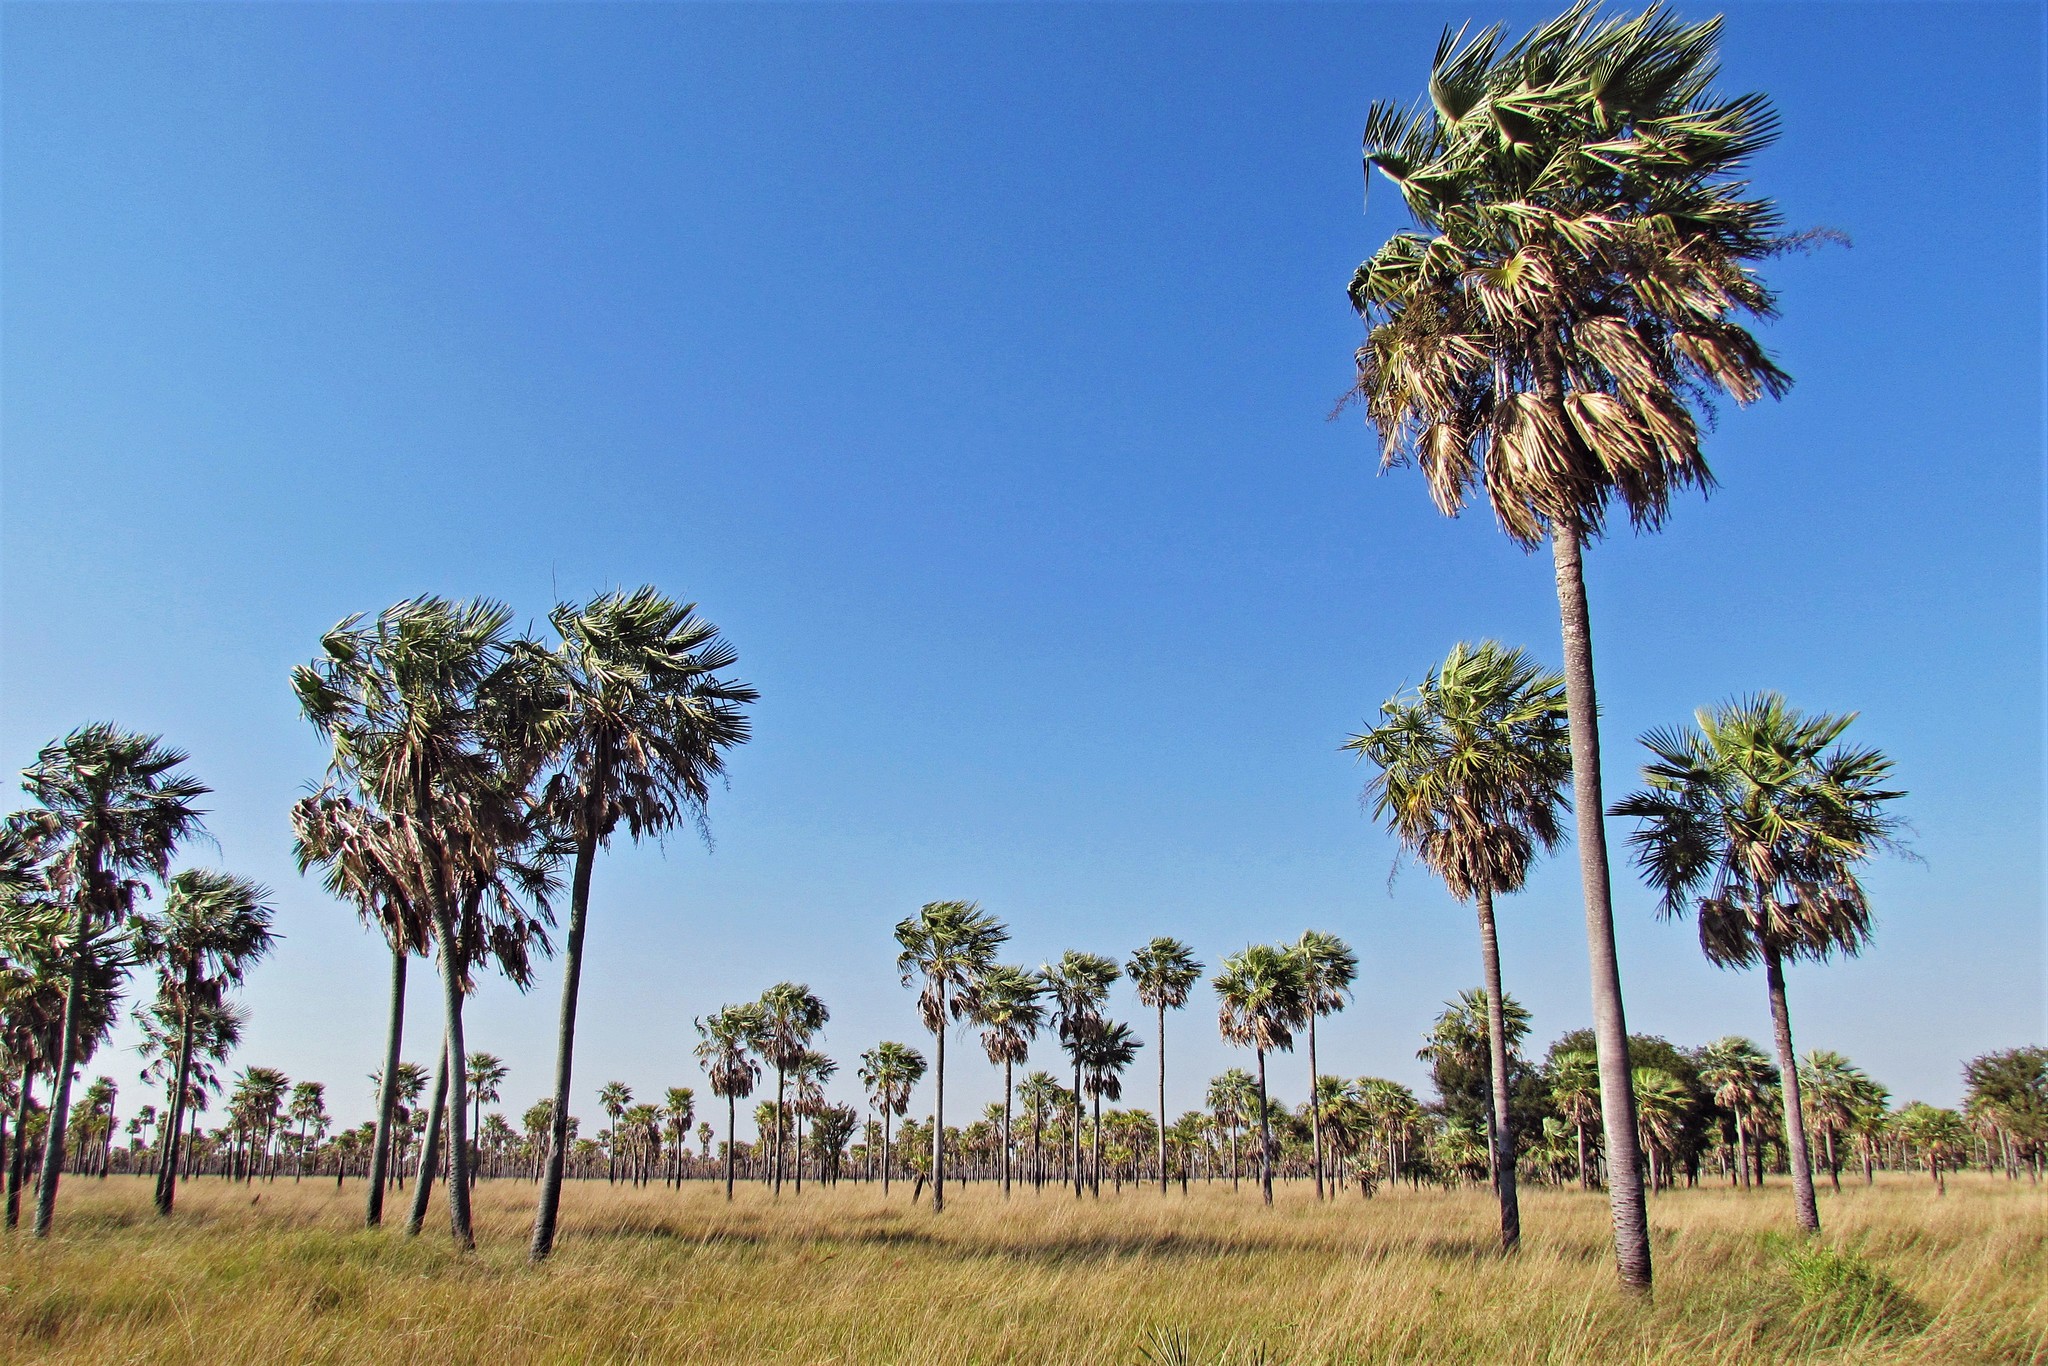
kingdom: Plantae
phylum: Tracheophyta
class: Liliopsida
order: Arecales
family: Arecaceae
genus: Copernicia
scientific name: Copernicia alba
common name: Caranday palm
